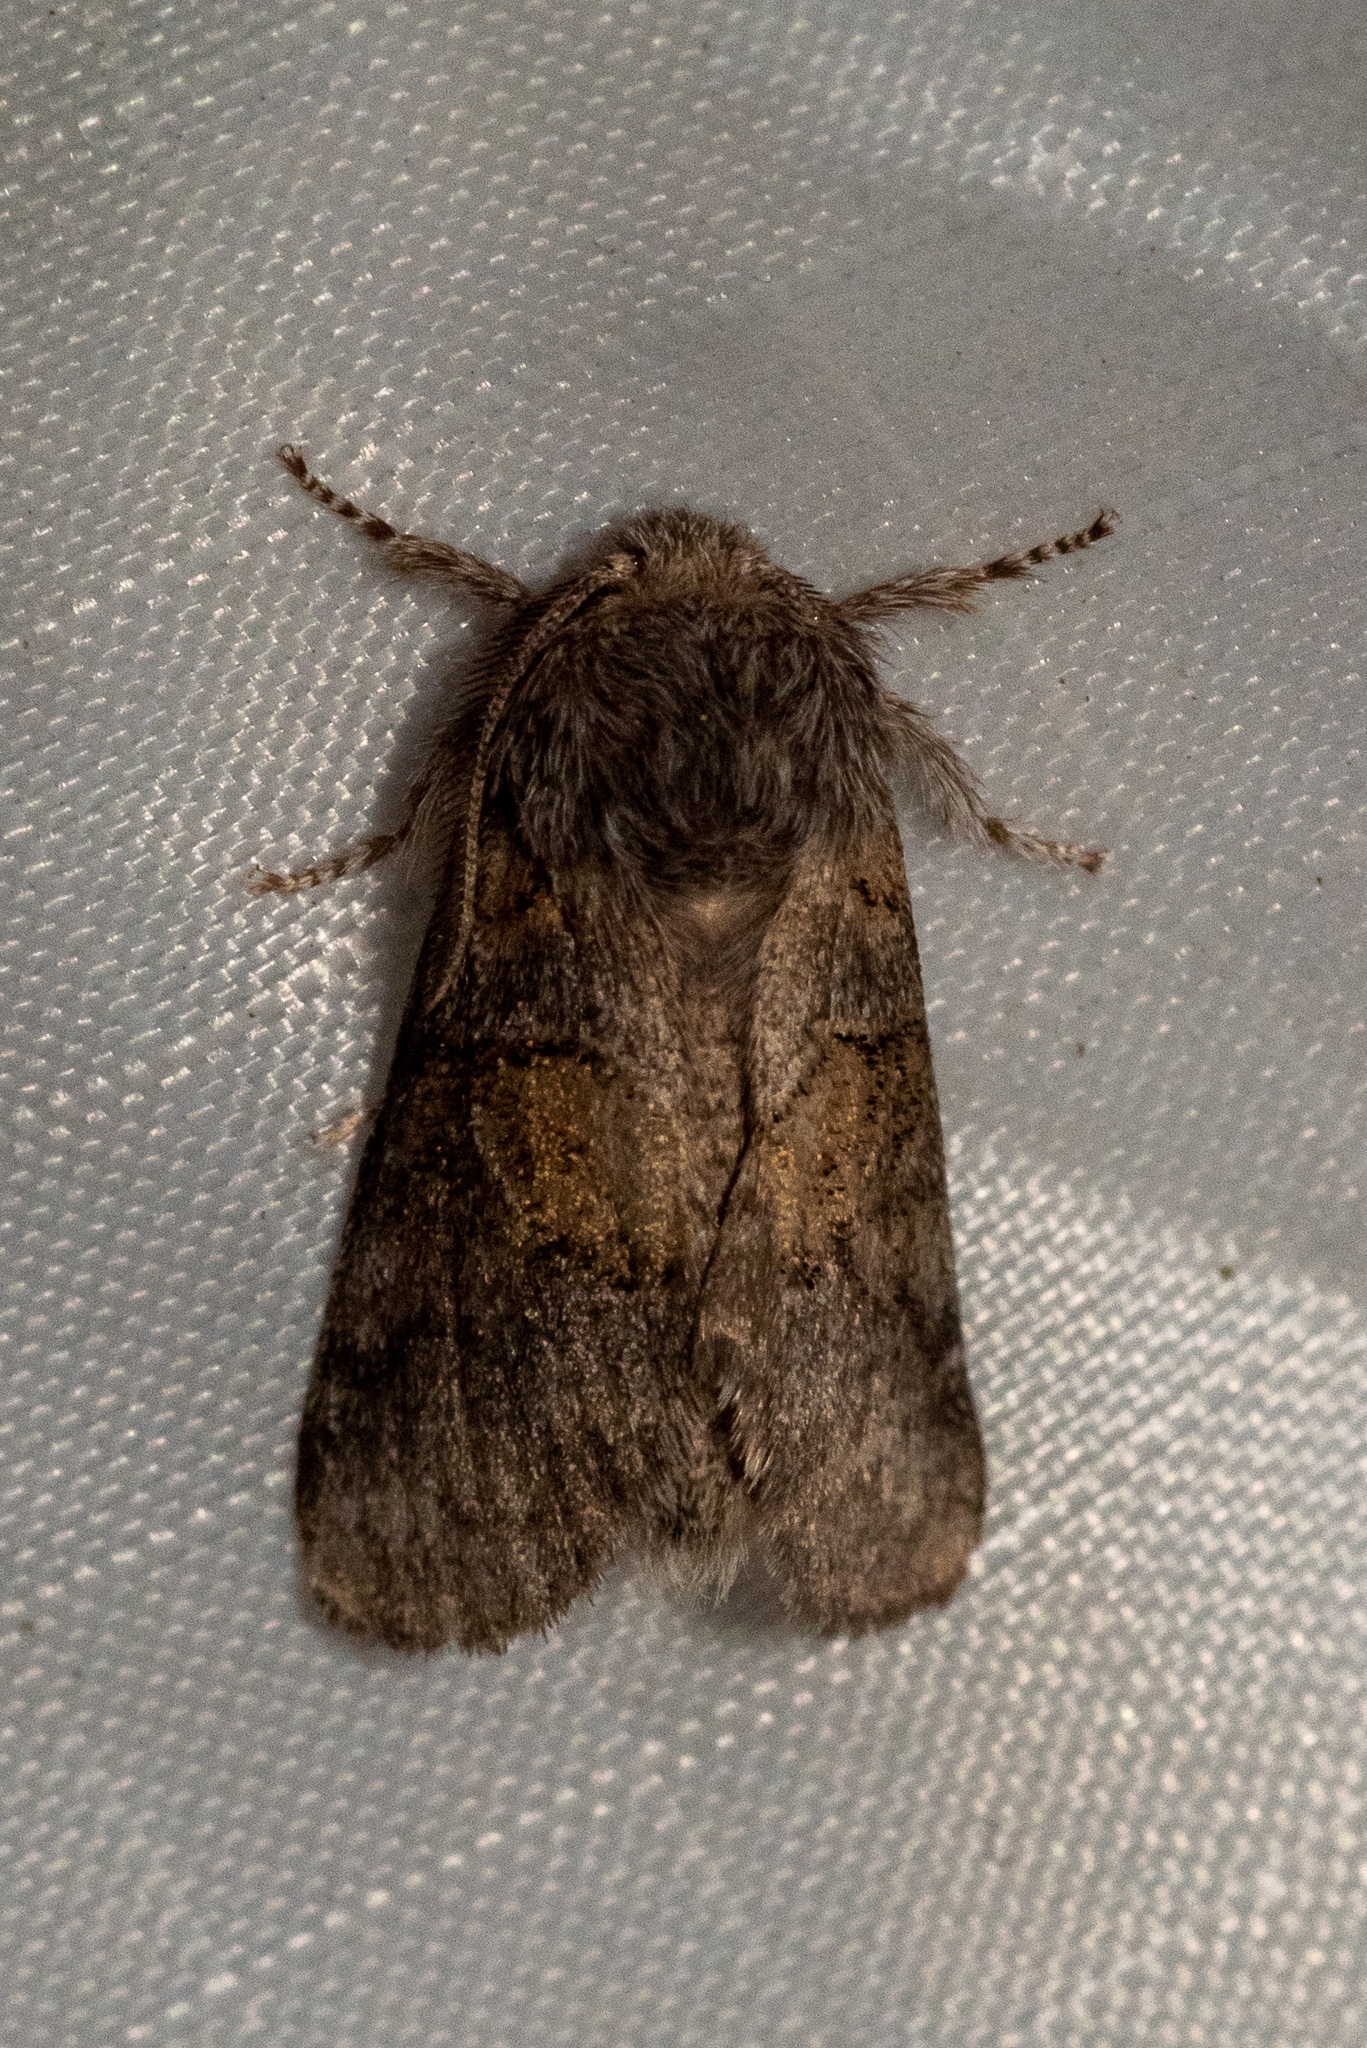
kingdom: Animalia
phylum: Arthropoda
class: Insecta
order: Lepidoptera
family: Notodontidae
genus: Gluphisia
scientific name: Gluphisia septentrionis
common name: Common gluphisia
